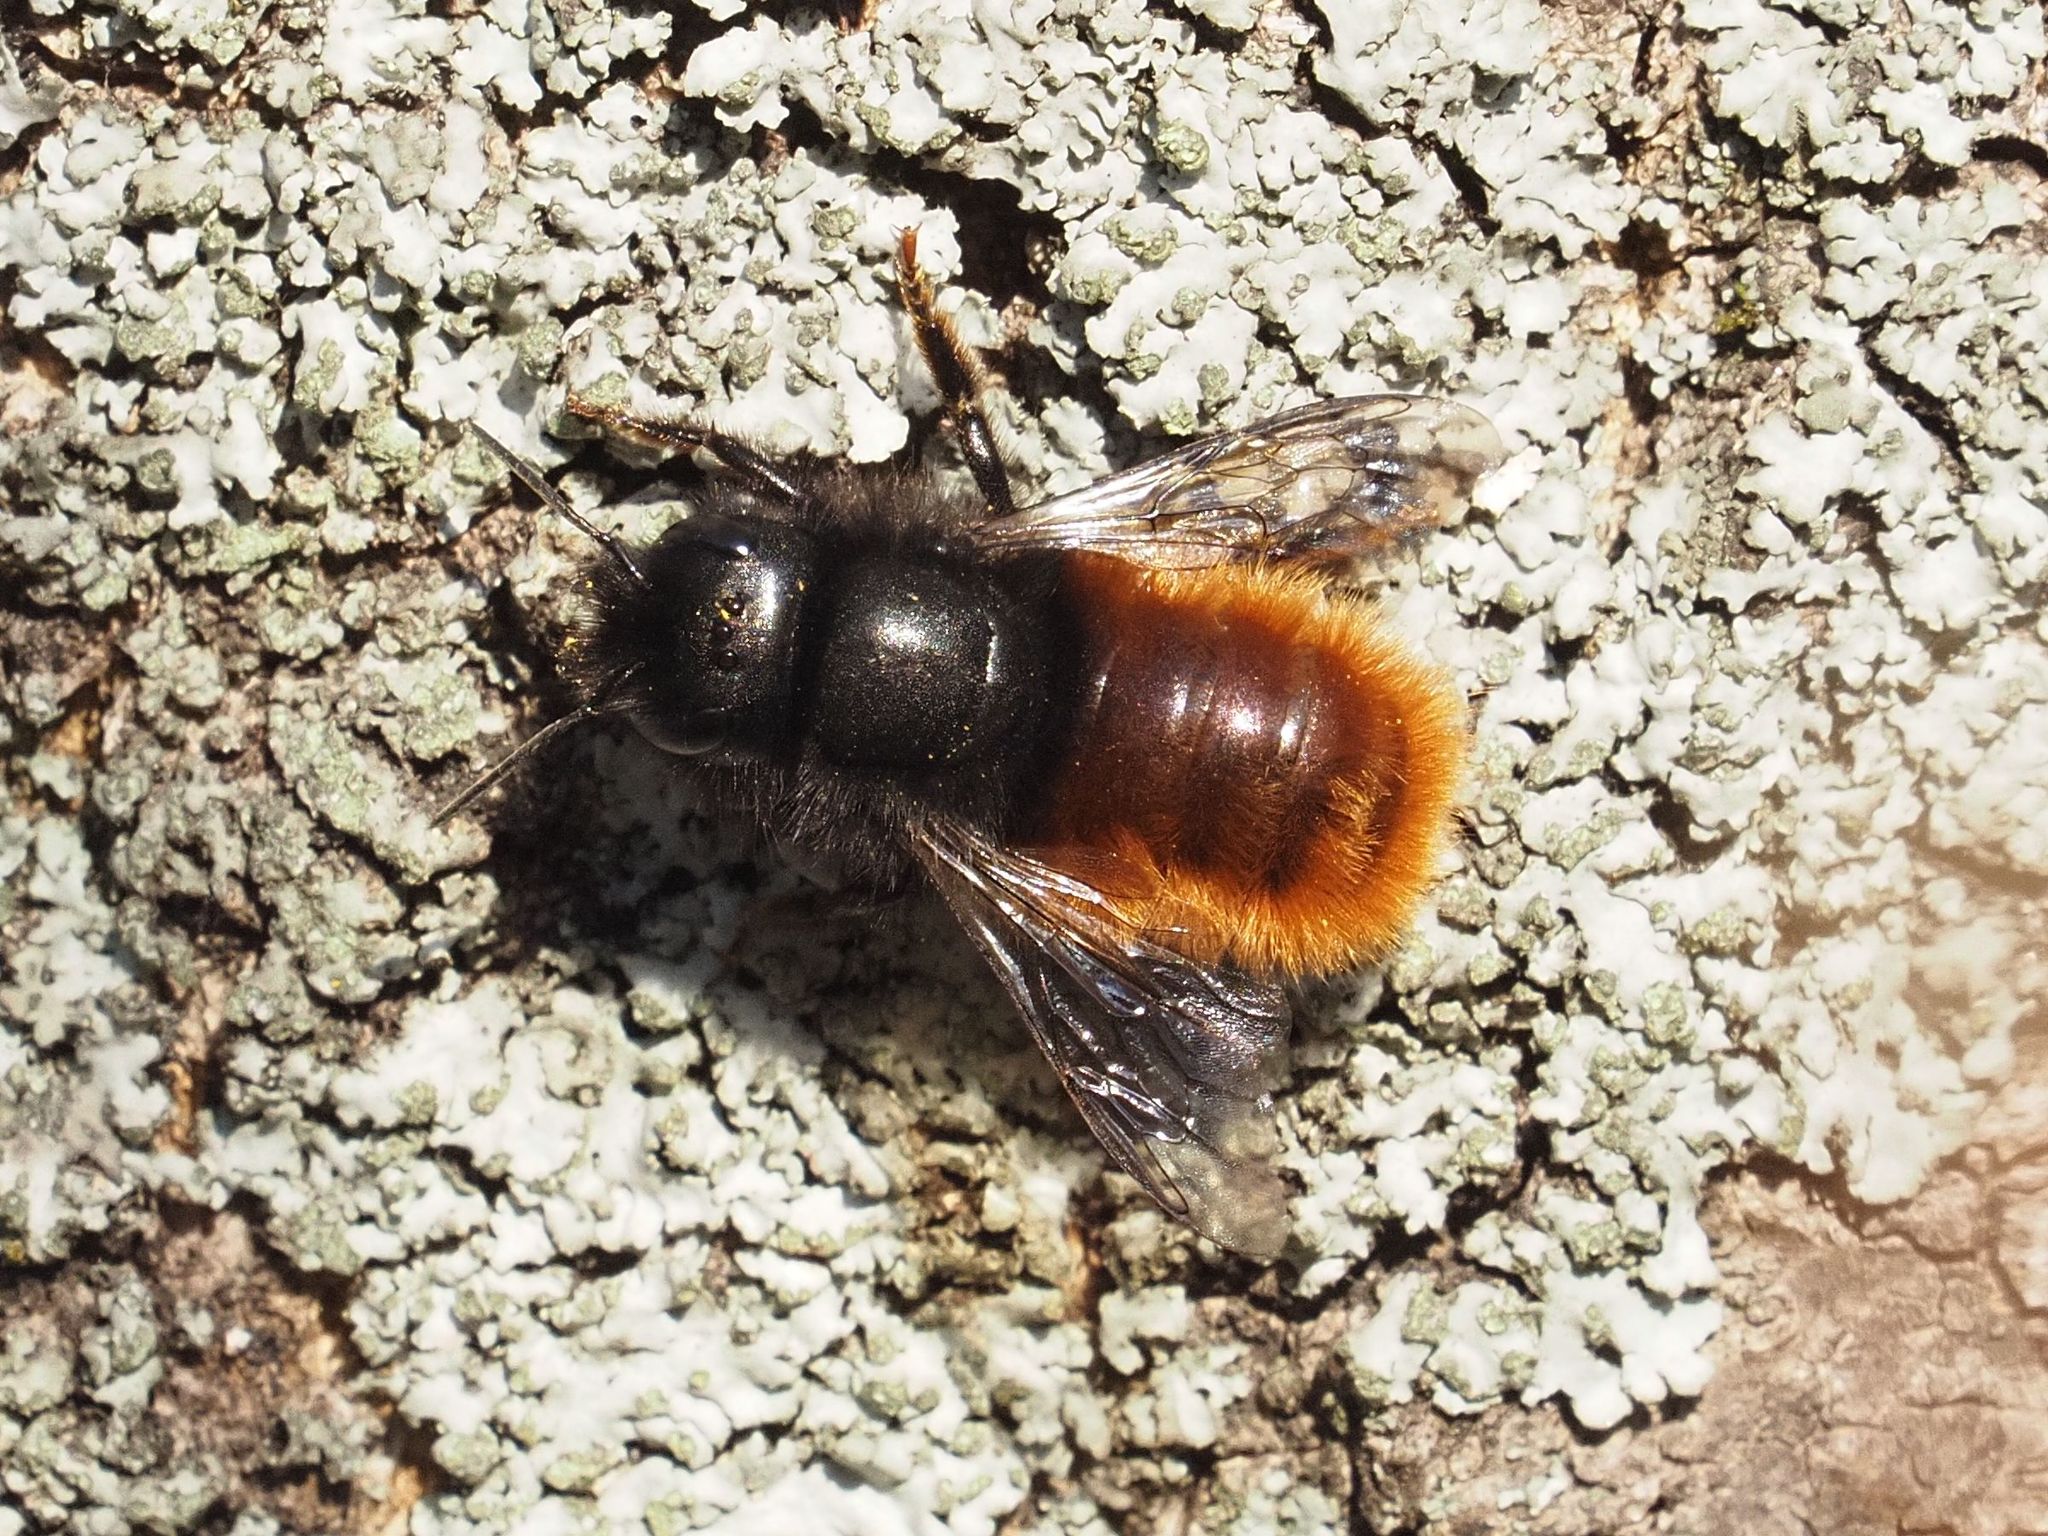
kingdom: Animalia
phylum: Arthropoda
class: Insecta
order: Hymenoptera
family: Megachilidae
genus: Osmia
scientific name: Osmia cornuta
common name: Mason bee
